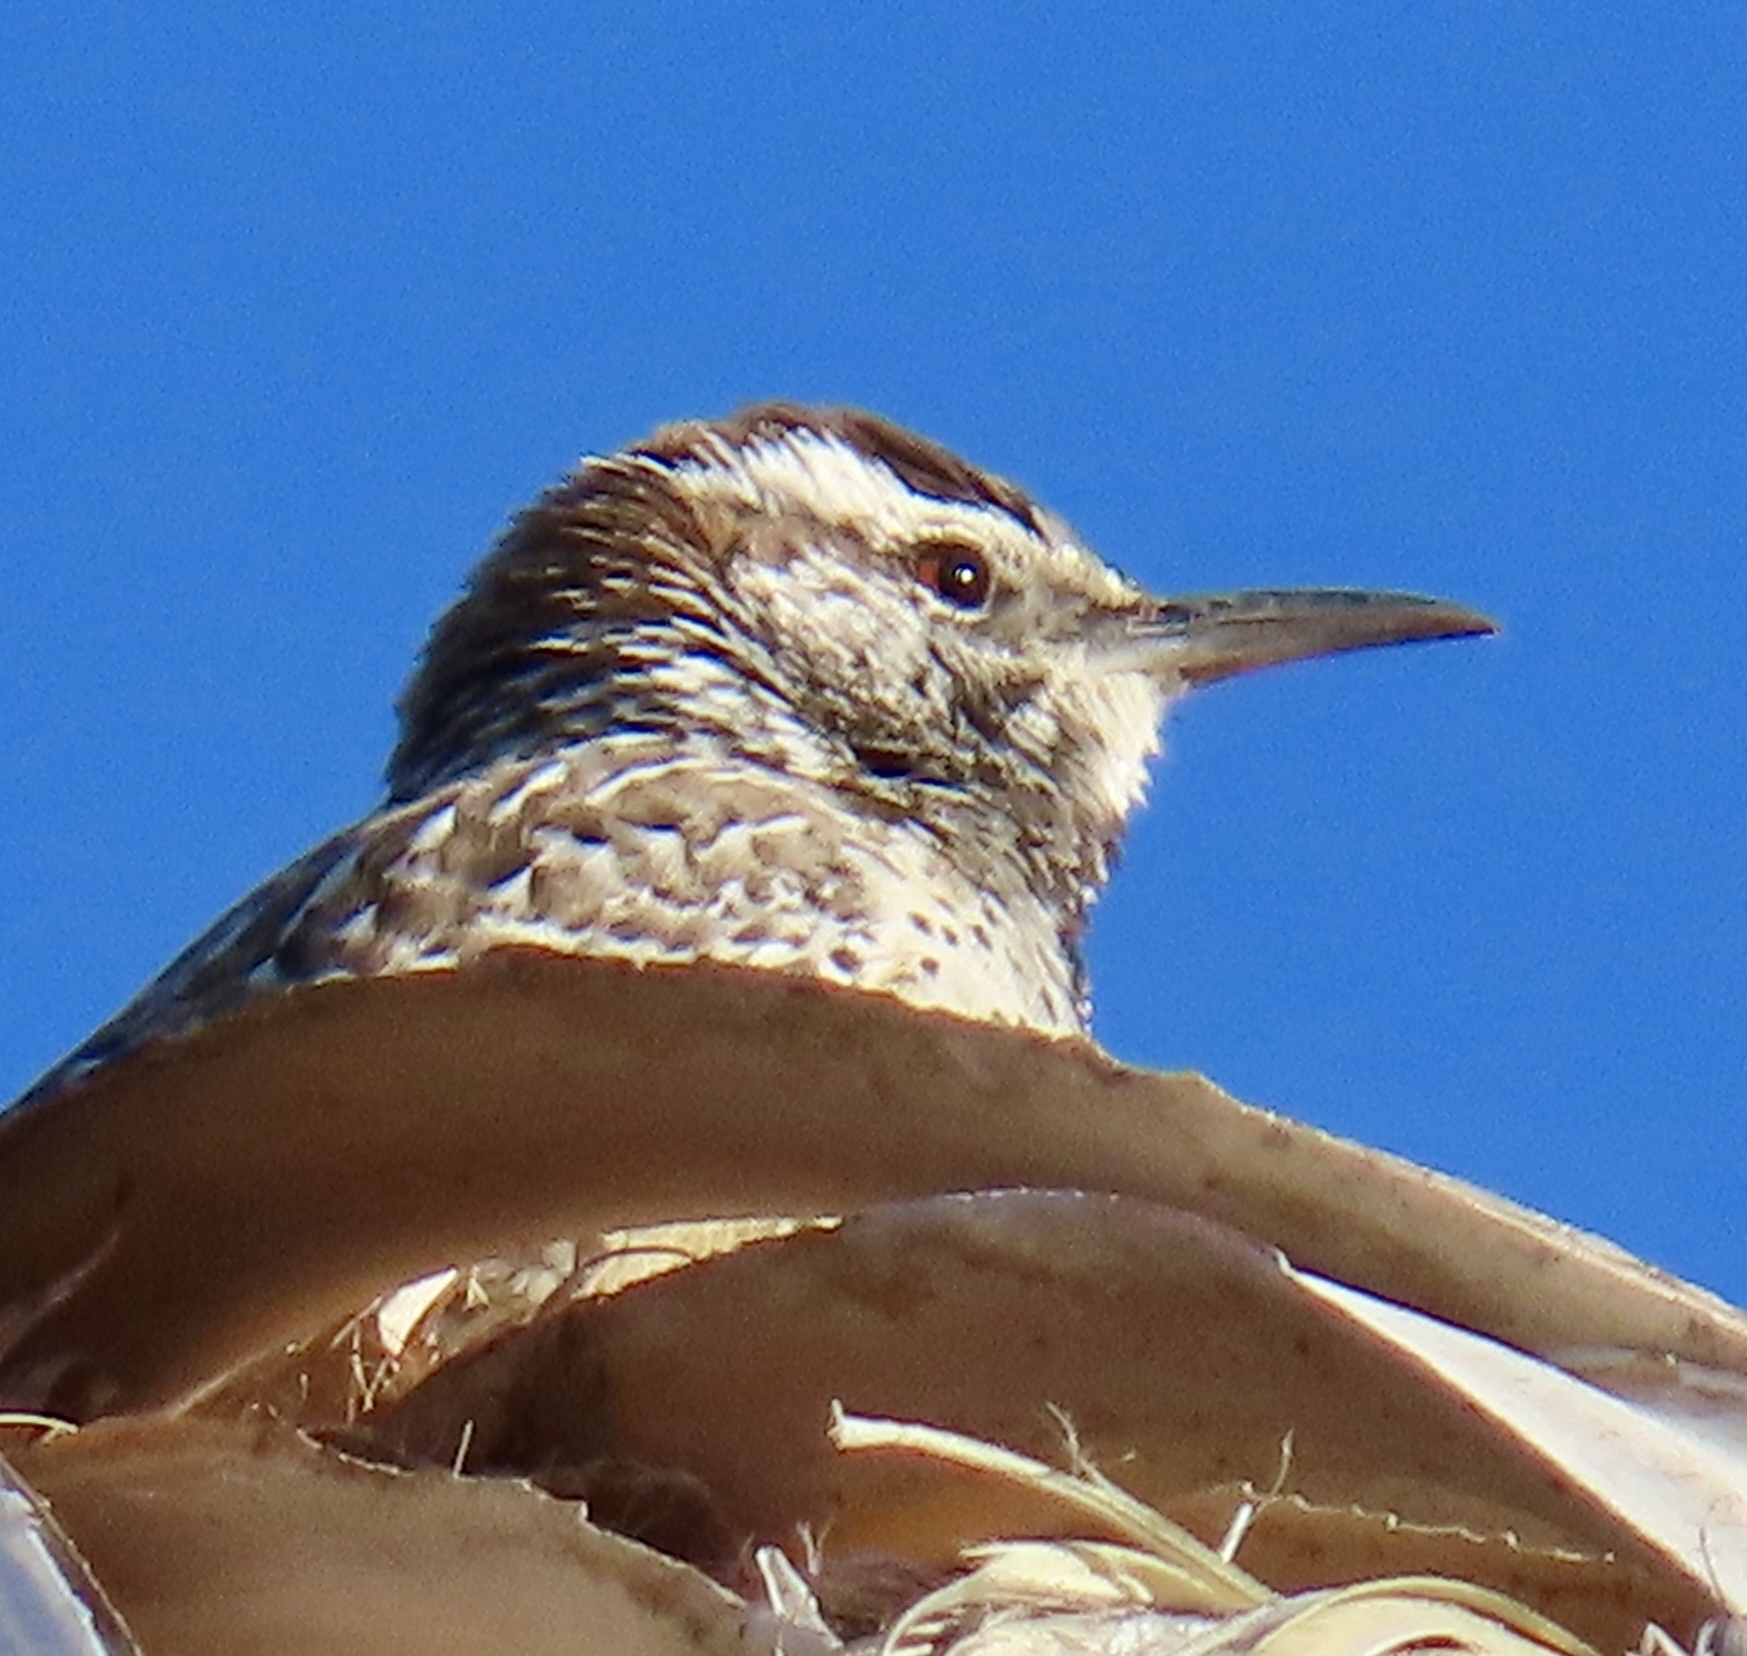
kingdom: Animalia
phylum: Chordata
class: Aves
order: Passeriformes
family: Troglodytidae
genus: Campylorhynchus
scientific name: Campylorhynchus brunneicapillus
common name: Cactus wren
